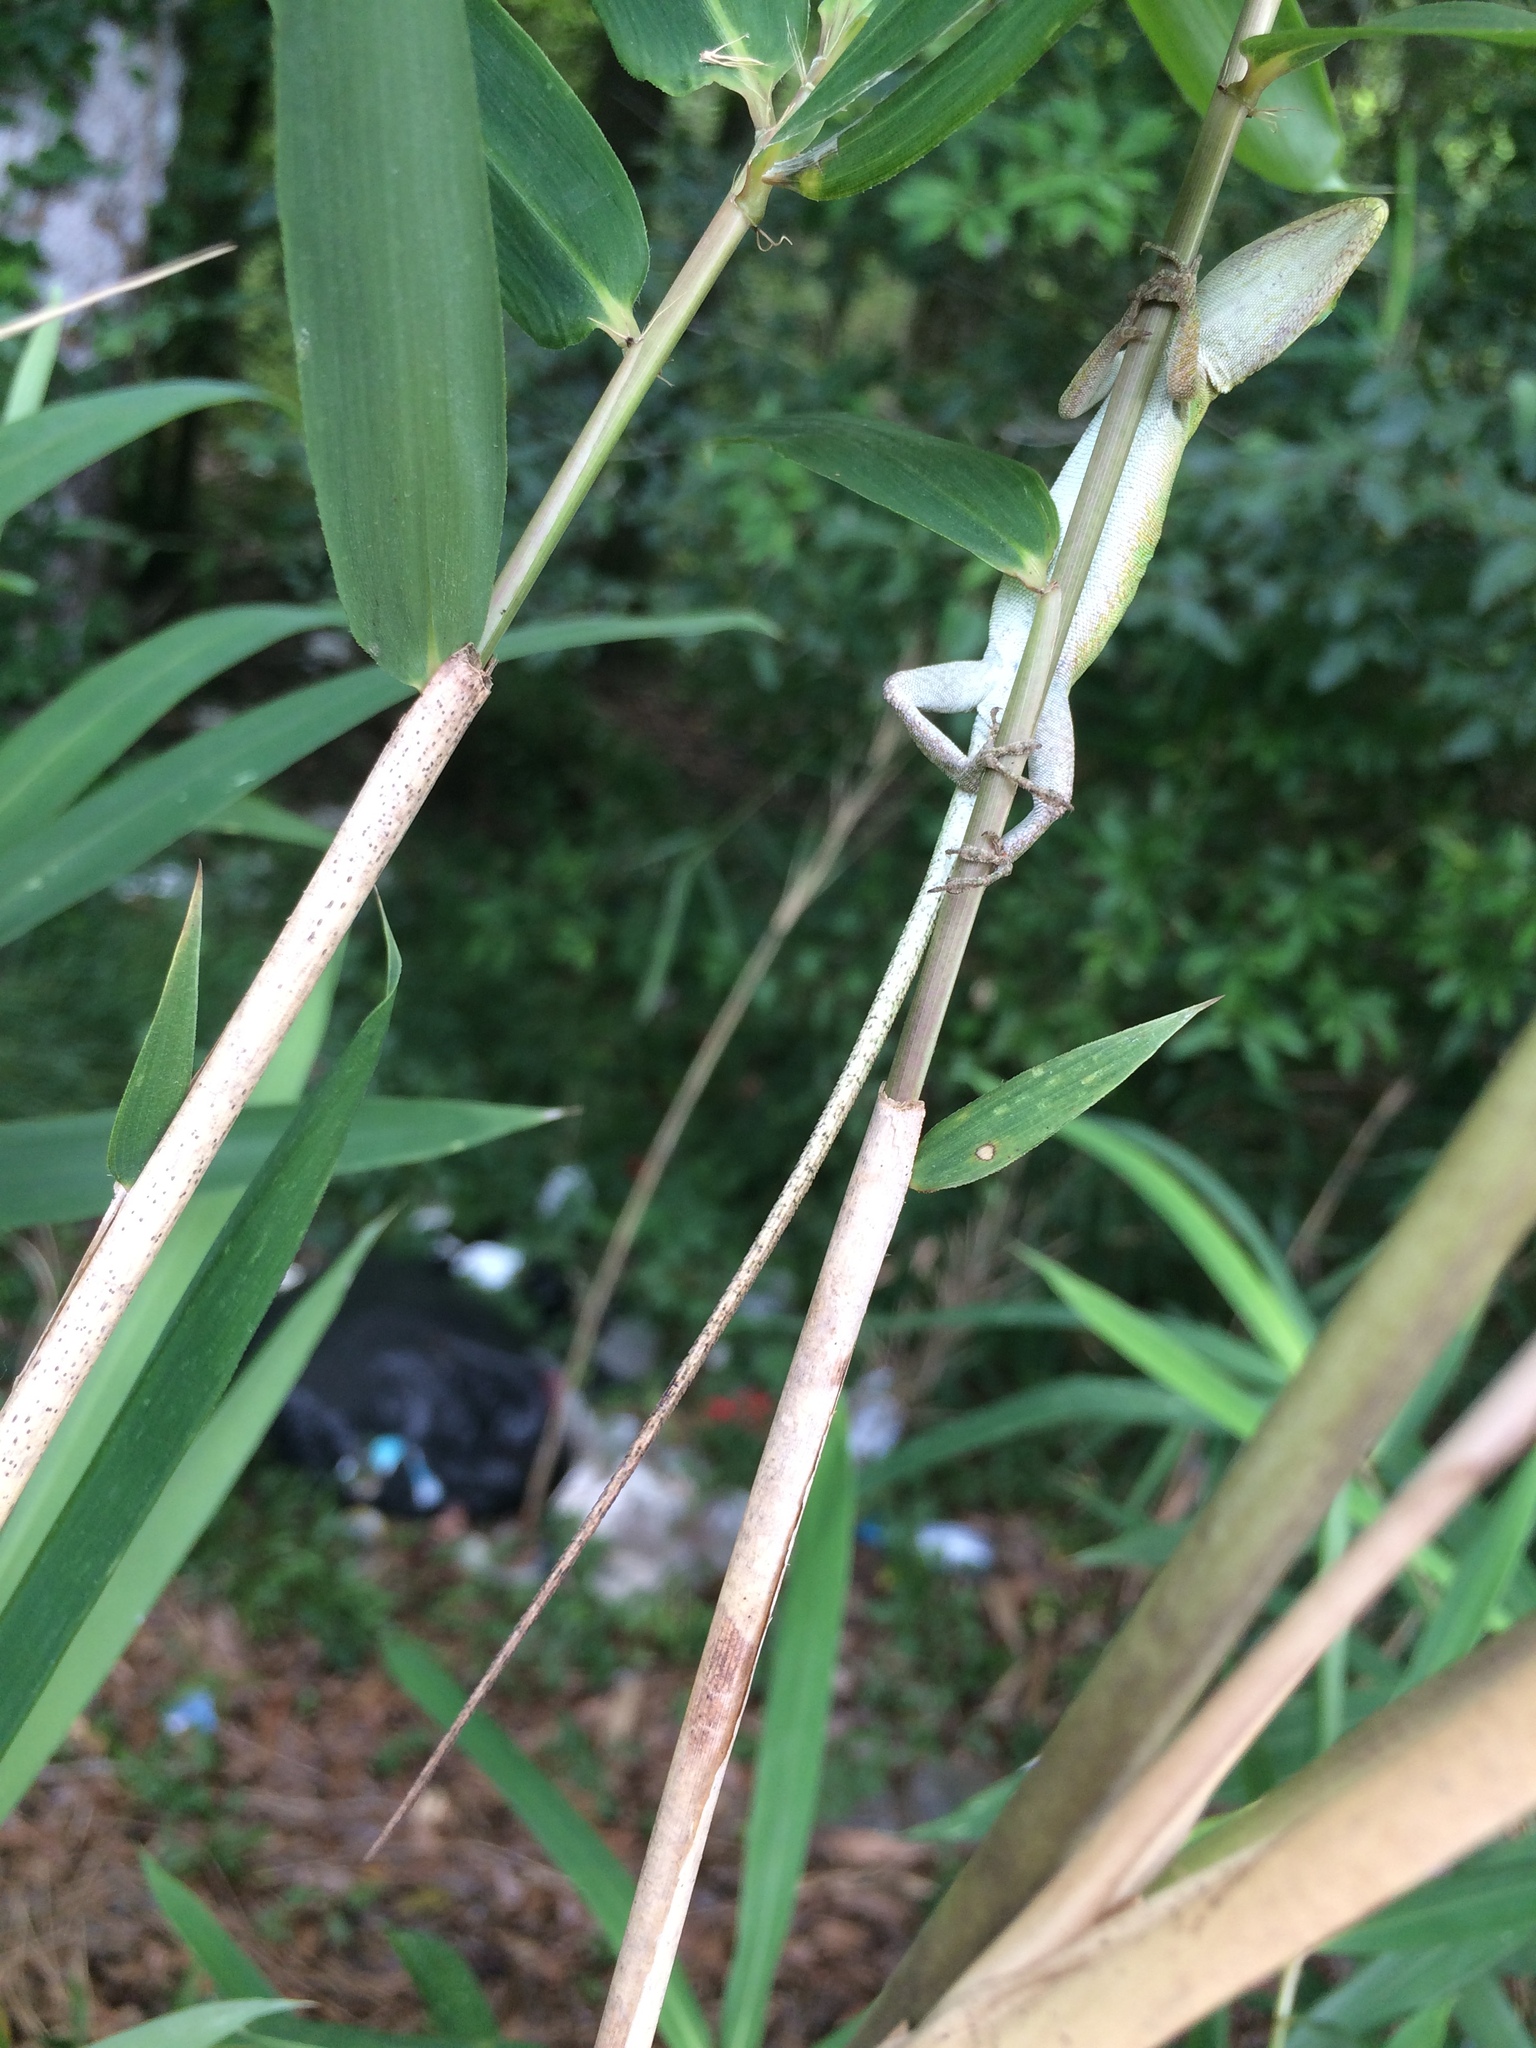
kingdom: Animalia
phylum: Chordata
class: Squamata
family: Dactyloidae
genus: Anolis
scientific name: Anolis carolinensis
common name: Green anole
